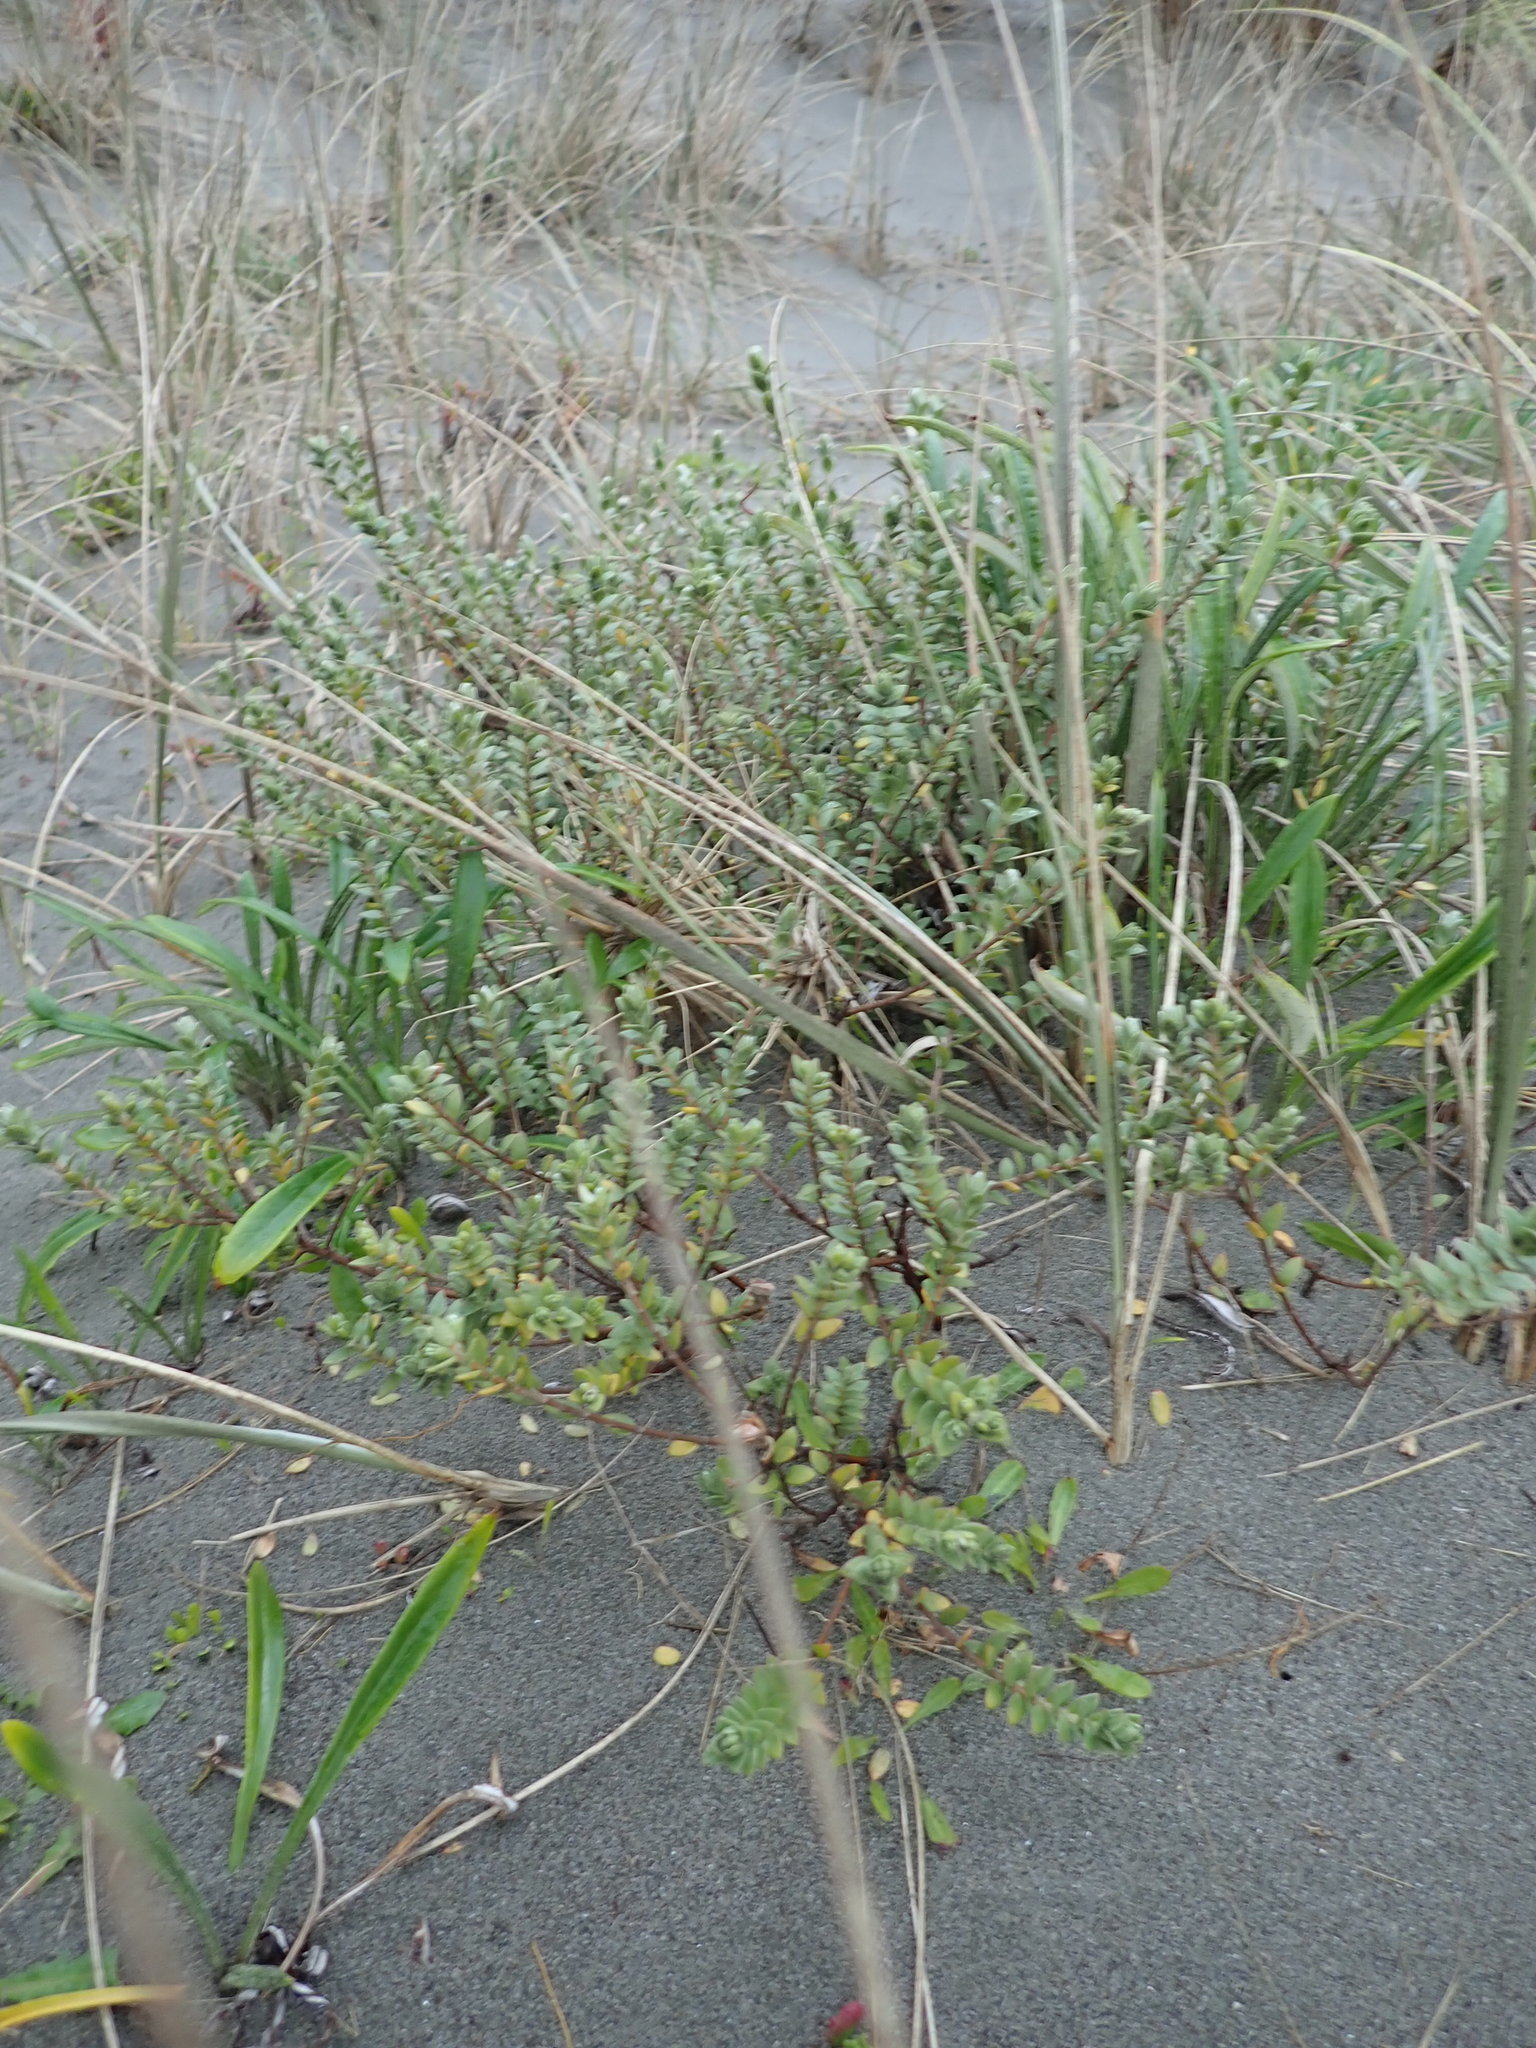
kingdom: Plantae
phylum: Tracheophyta
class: Magnoliopsida
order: Malvales
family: Thymelaeaceae
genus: Pimelea
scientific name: Pimelea villosa
